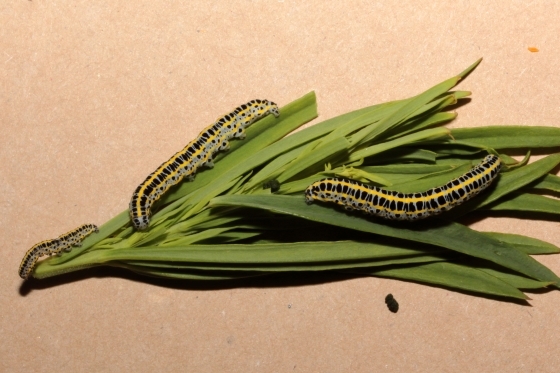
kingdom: Animalia
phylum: Arthropoda
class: Insecta
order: Lepidoptera
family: Noctuidae
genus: Calophasia
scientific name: Calophasia lunula
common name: Toadflax brocade
